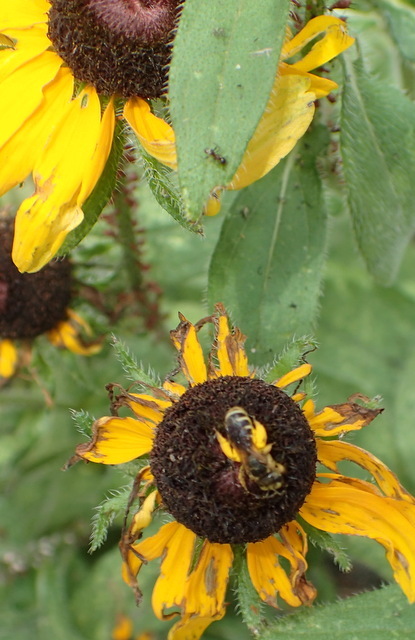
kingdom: Animalia
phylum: Arthropoda
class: Insecta
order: Hymenoptera
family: Halictidae
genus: Halictus
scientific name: Halictus poeyi
